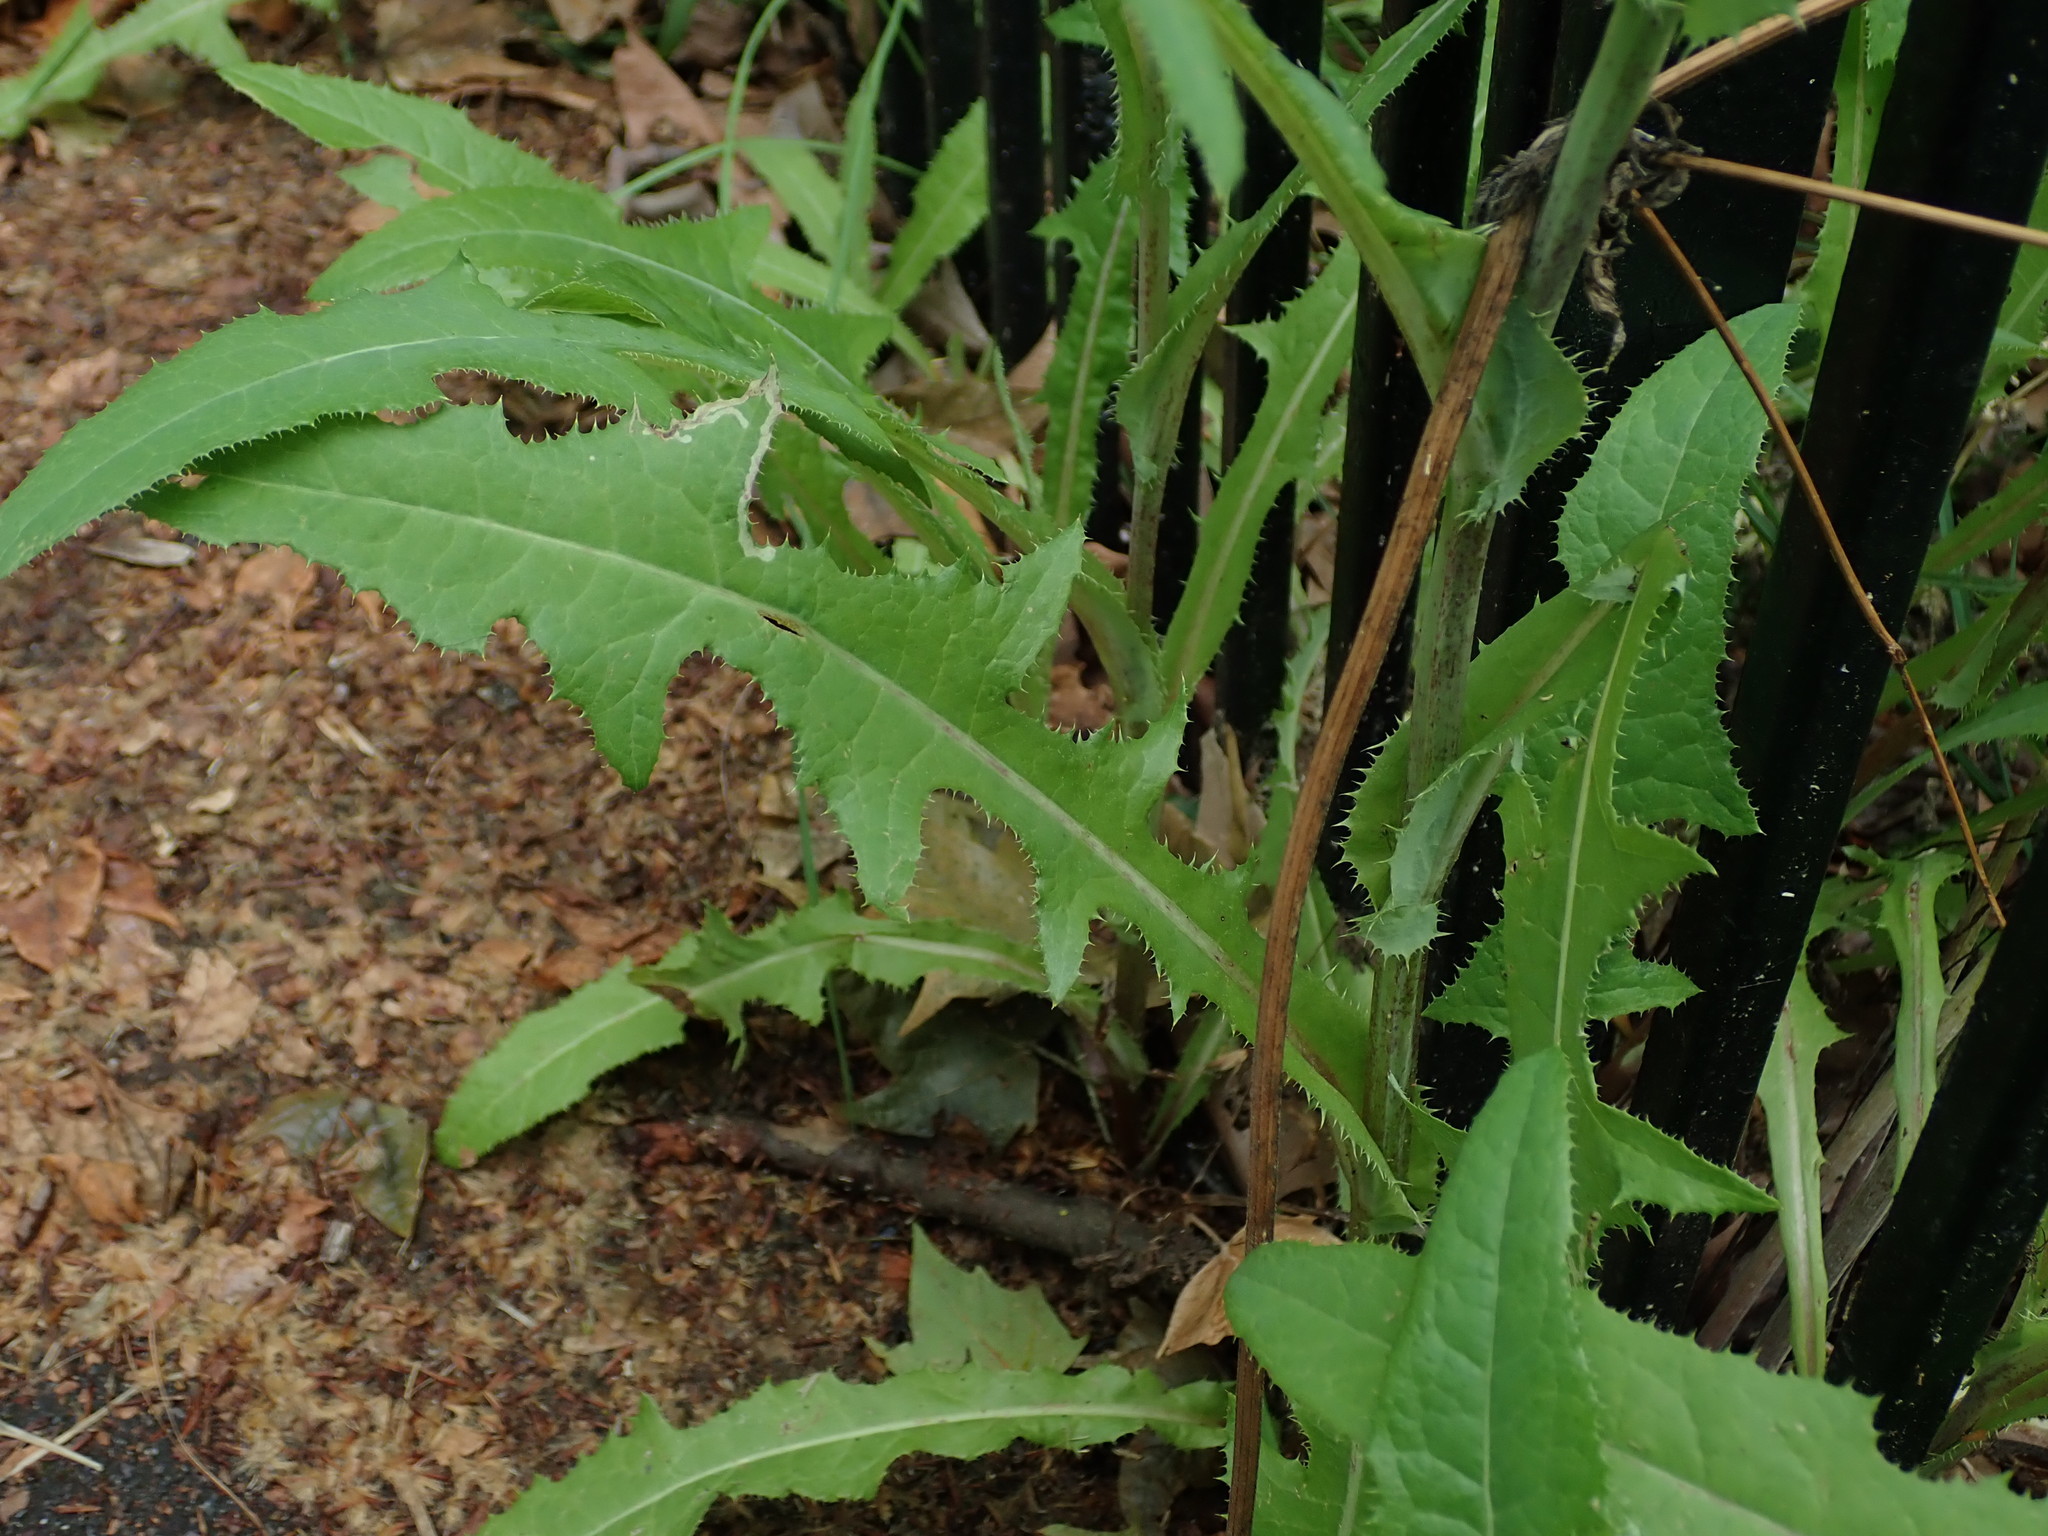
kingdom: Plantae
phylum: Tracheophyta
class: Magnoliopsida
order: Asterales
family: Asteraceae
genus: Sonchus
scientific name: Sonchus arvensis
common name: Perennial sow-thistle
